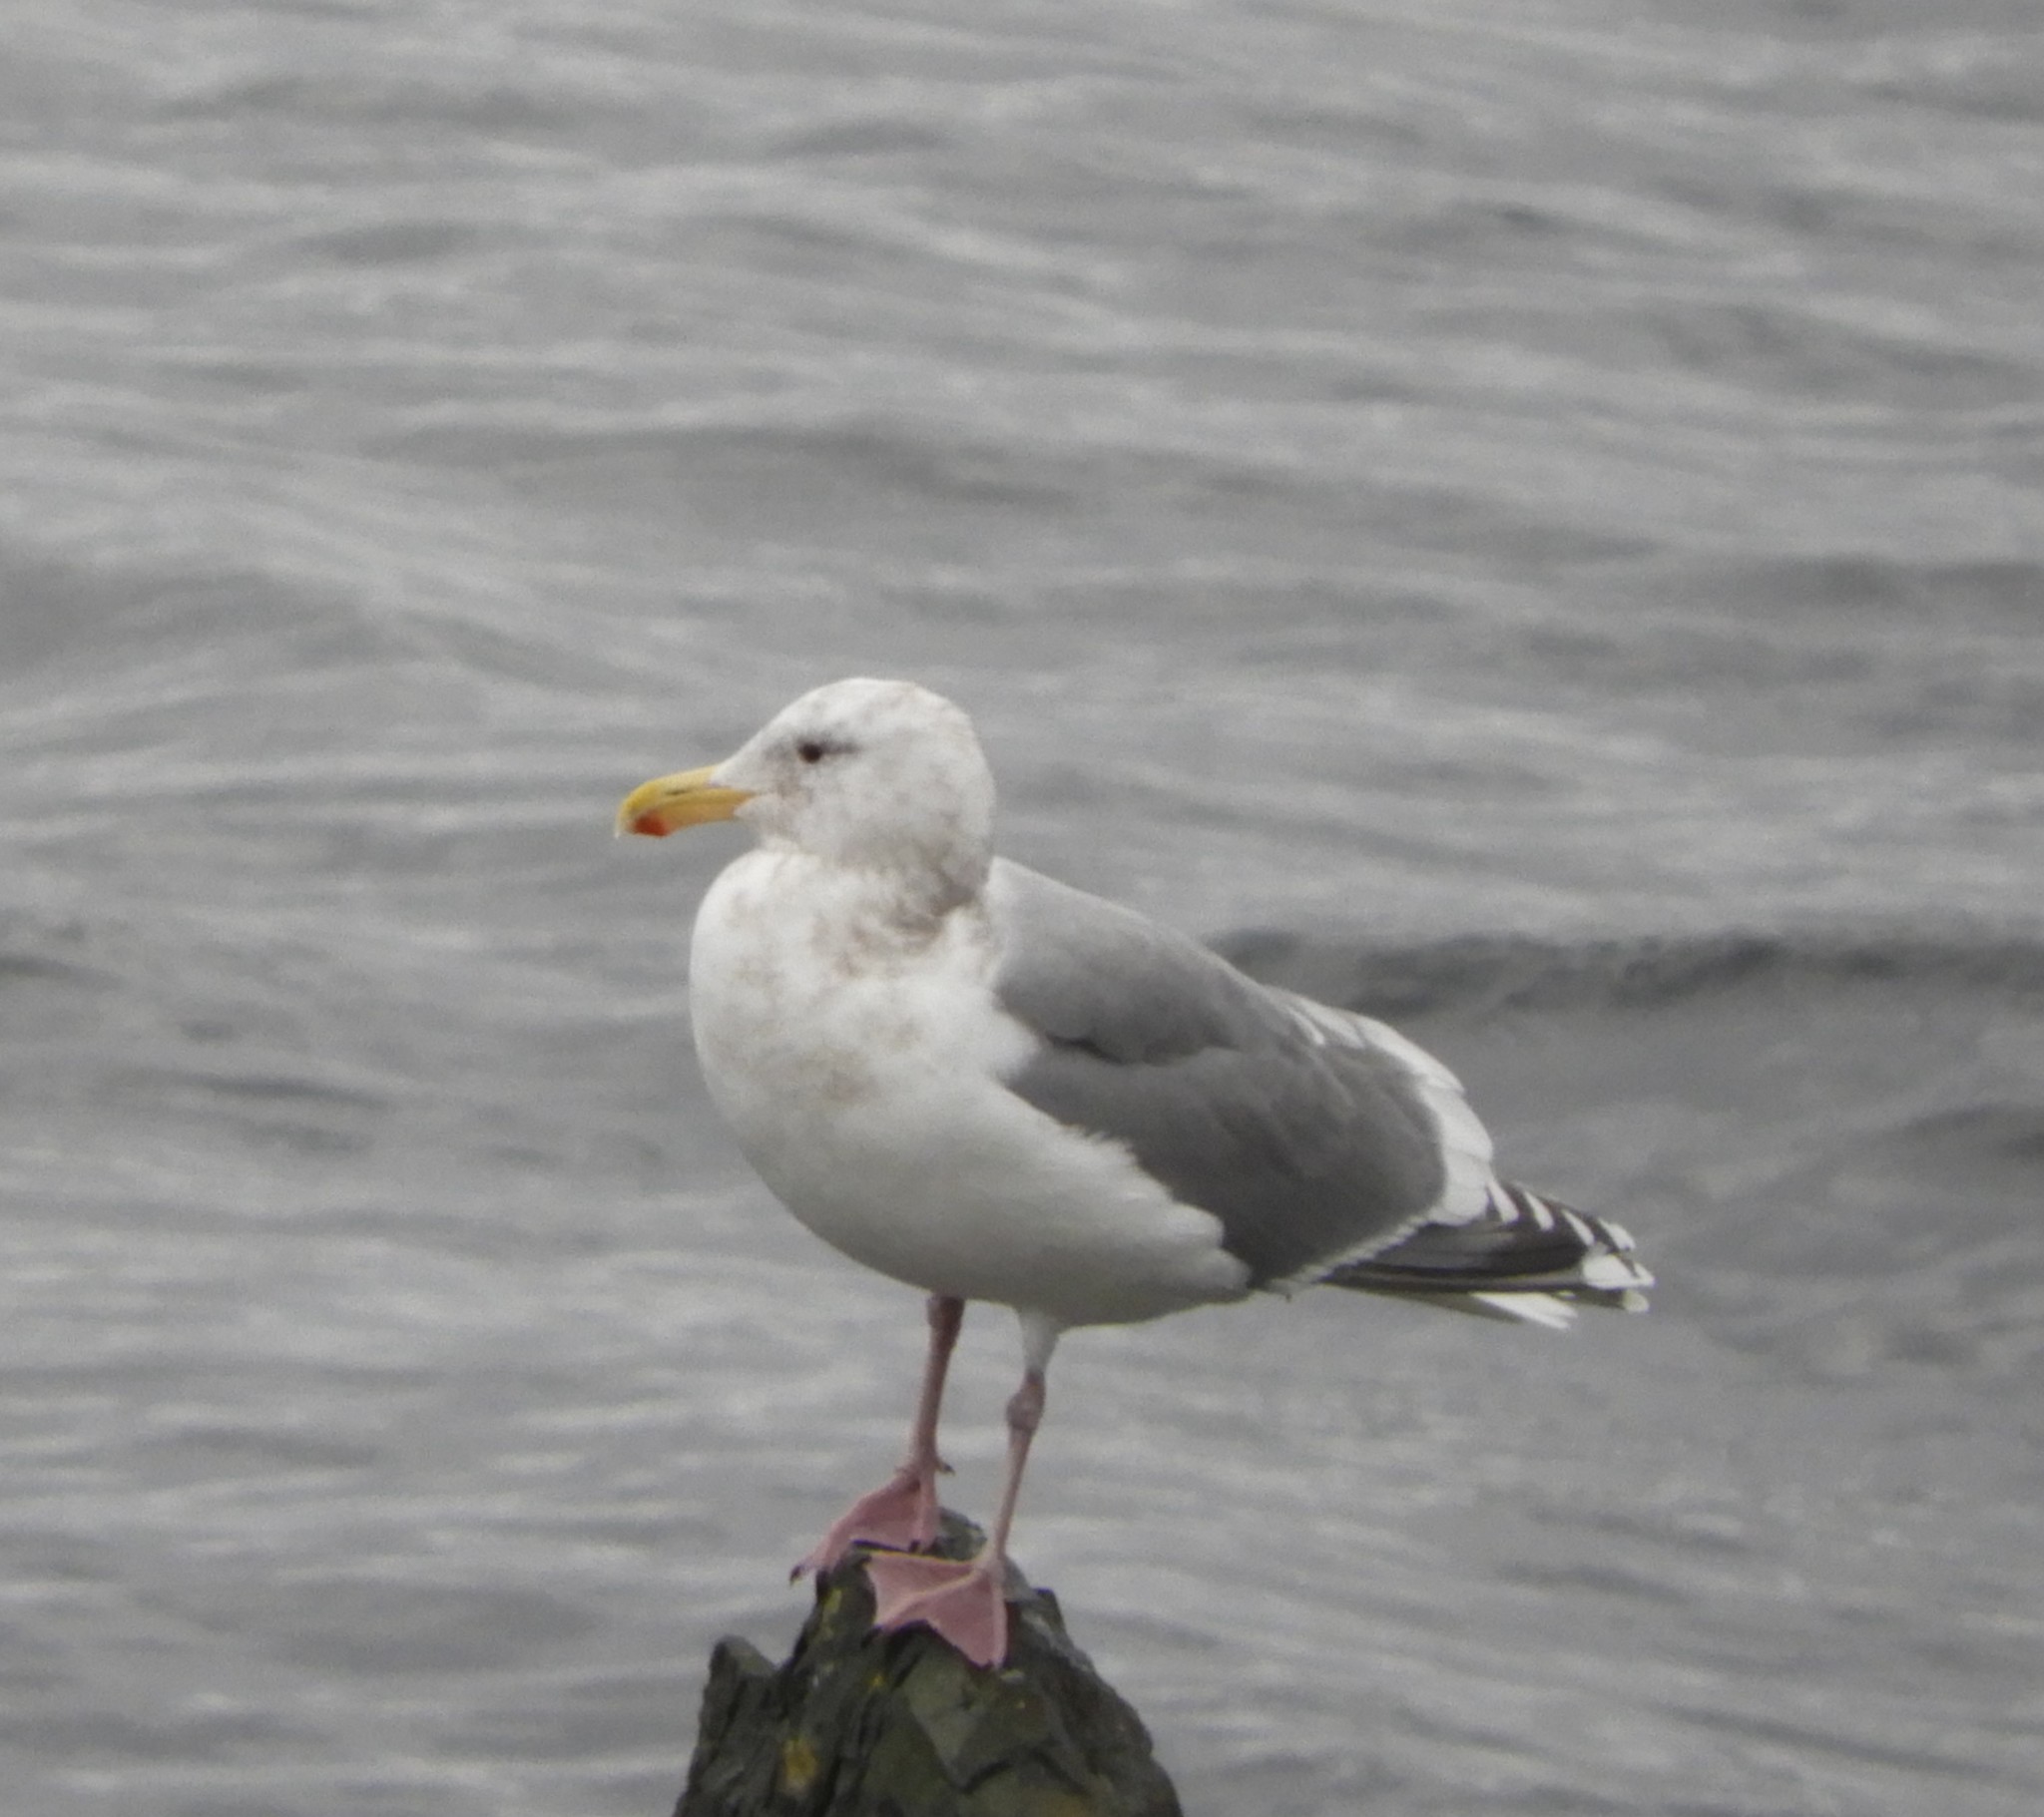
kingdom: Animalia
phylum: Chordata
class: Aves
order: Charadriiformes
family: Laridae
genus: Larus
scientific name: Larus
